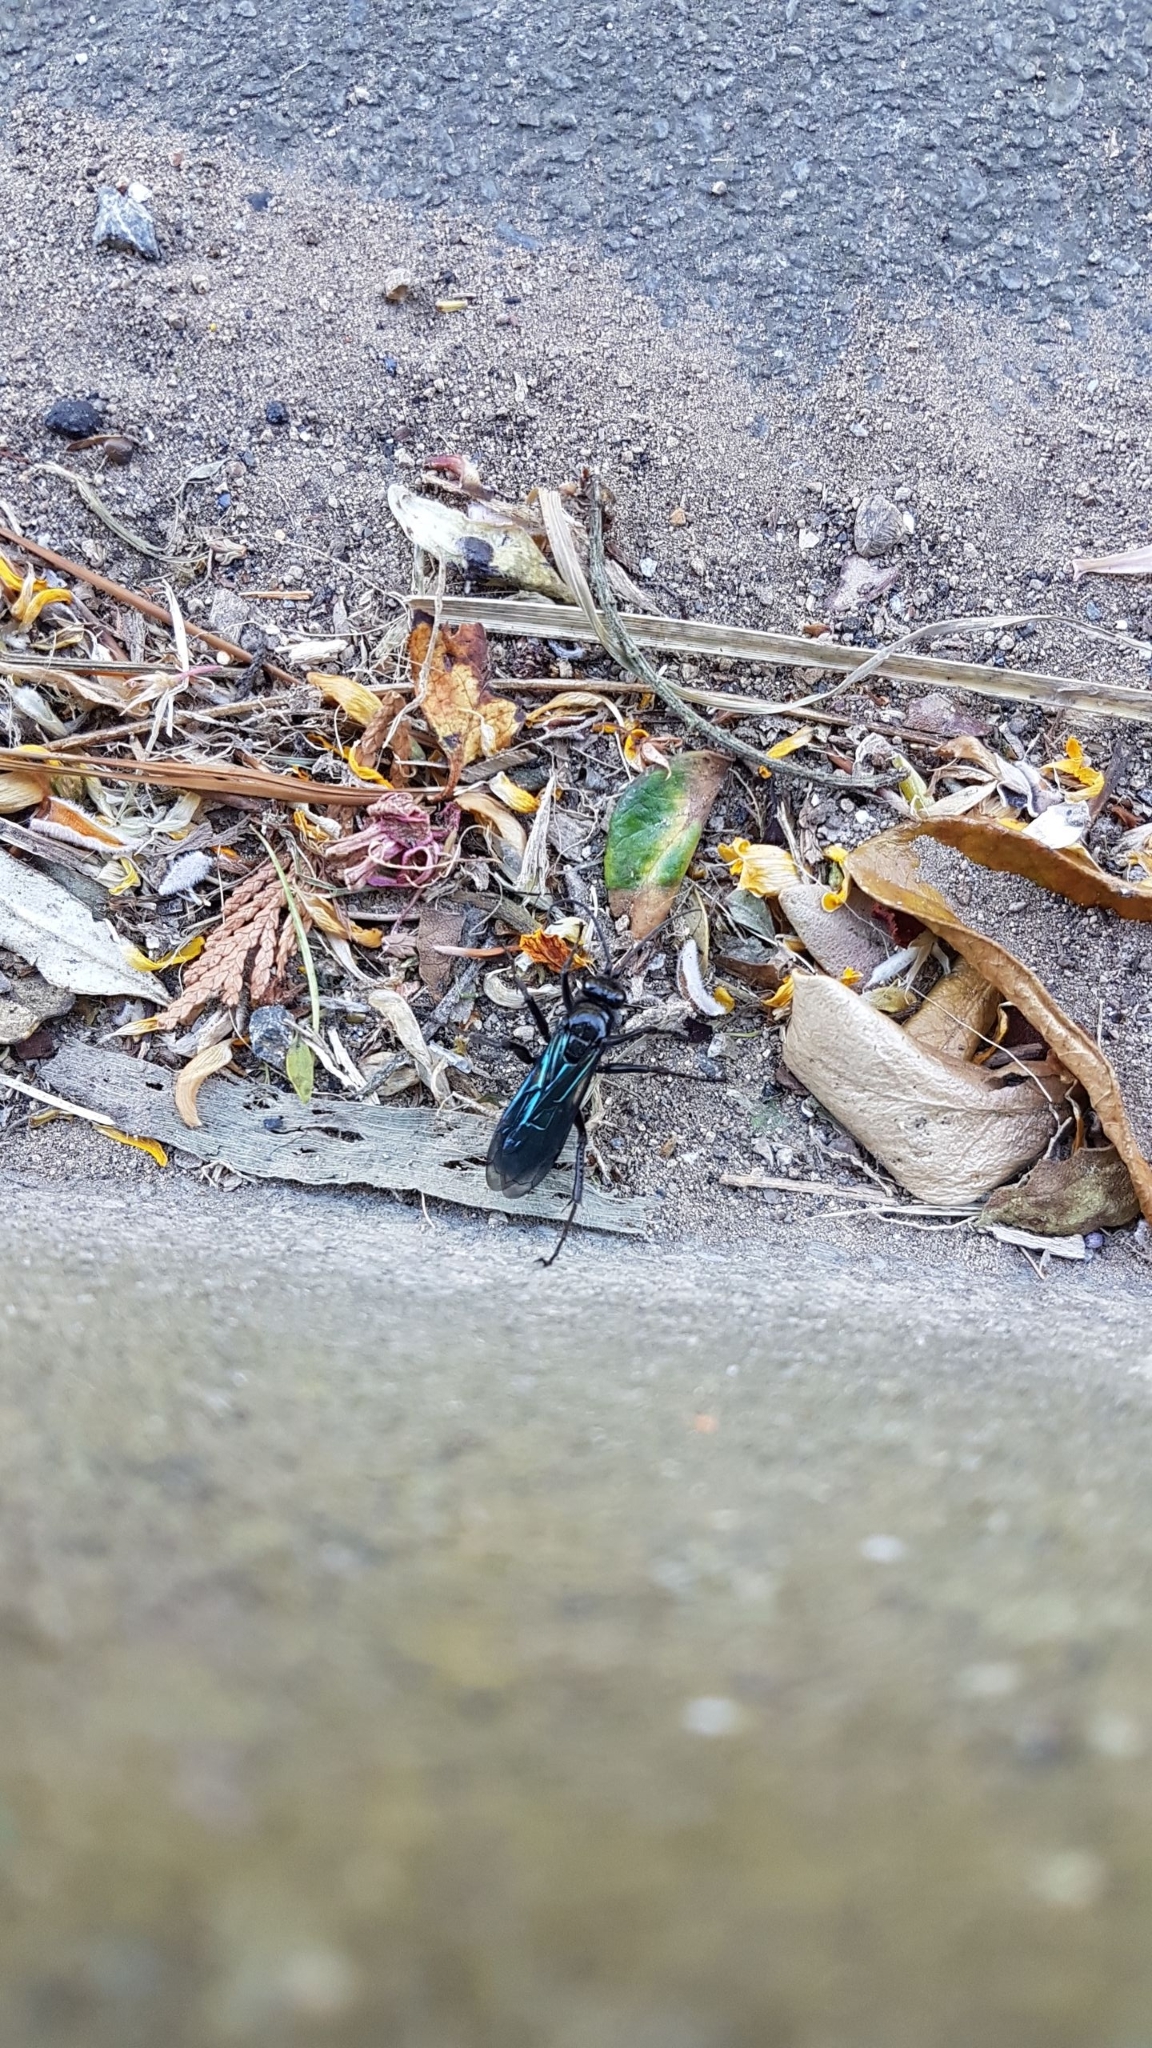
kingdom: Animalia
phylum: Arthropoda
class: Insecta
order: Hymenoptera
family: Pompilidae
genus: Priocnemis
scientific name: Priocnemis monachus
